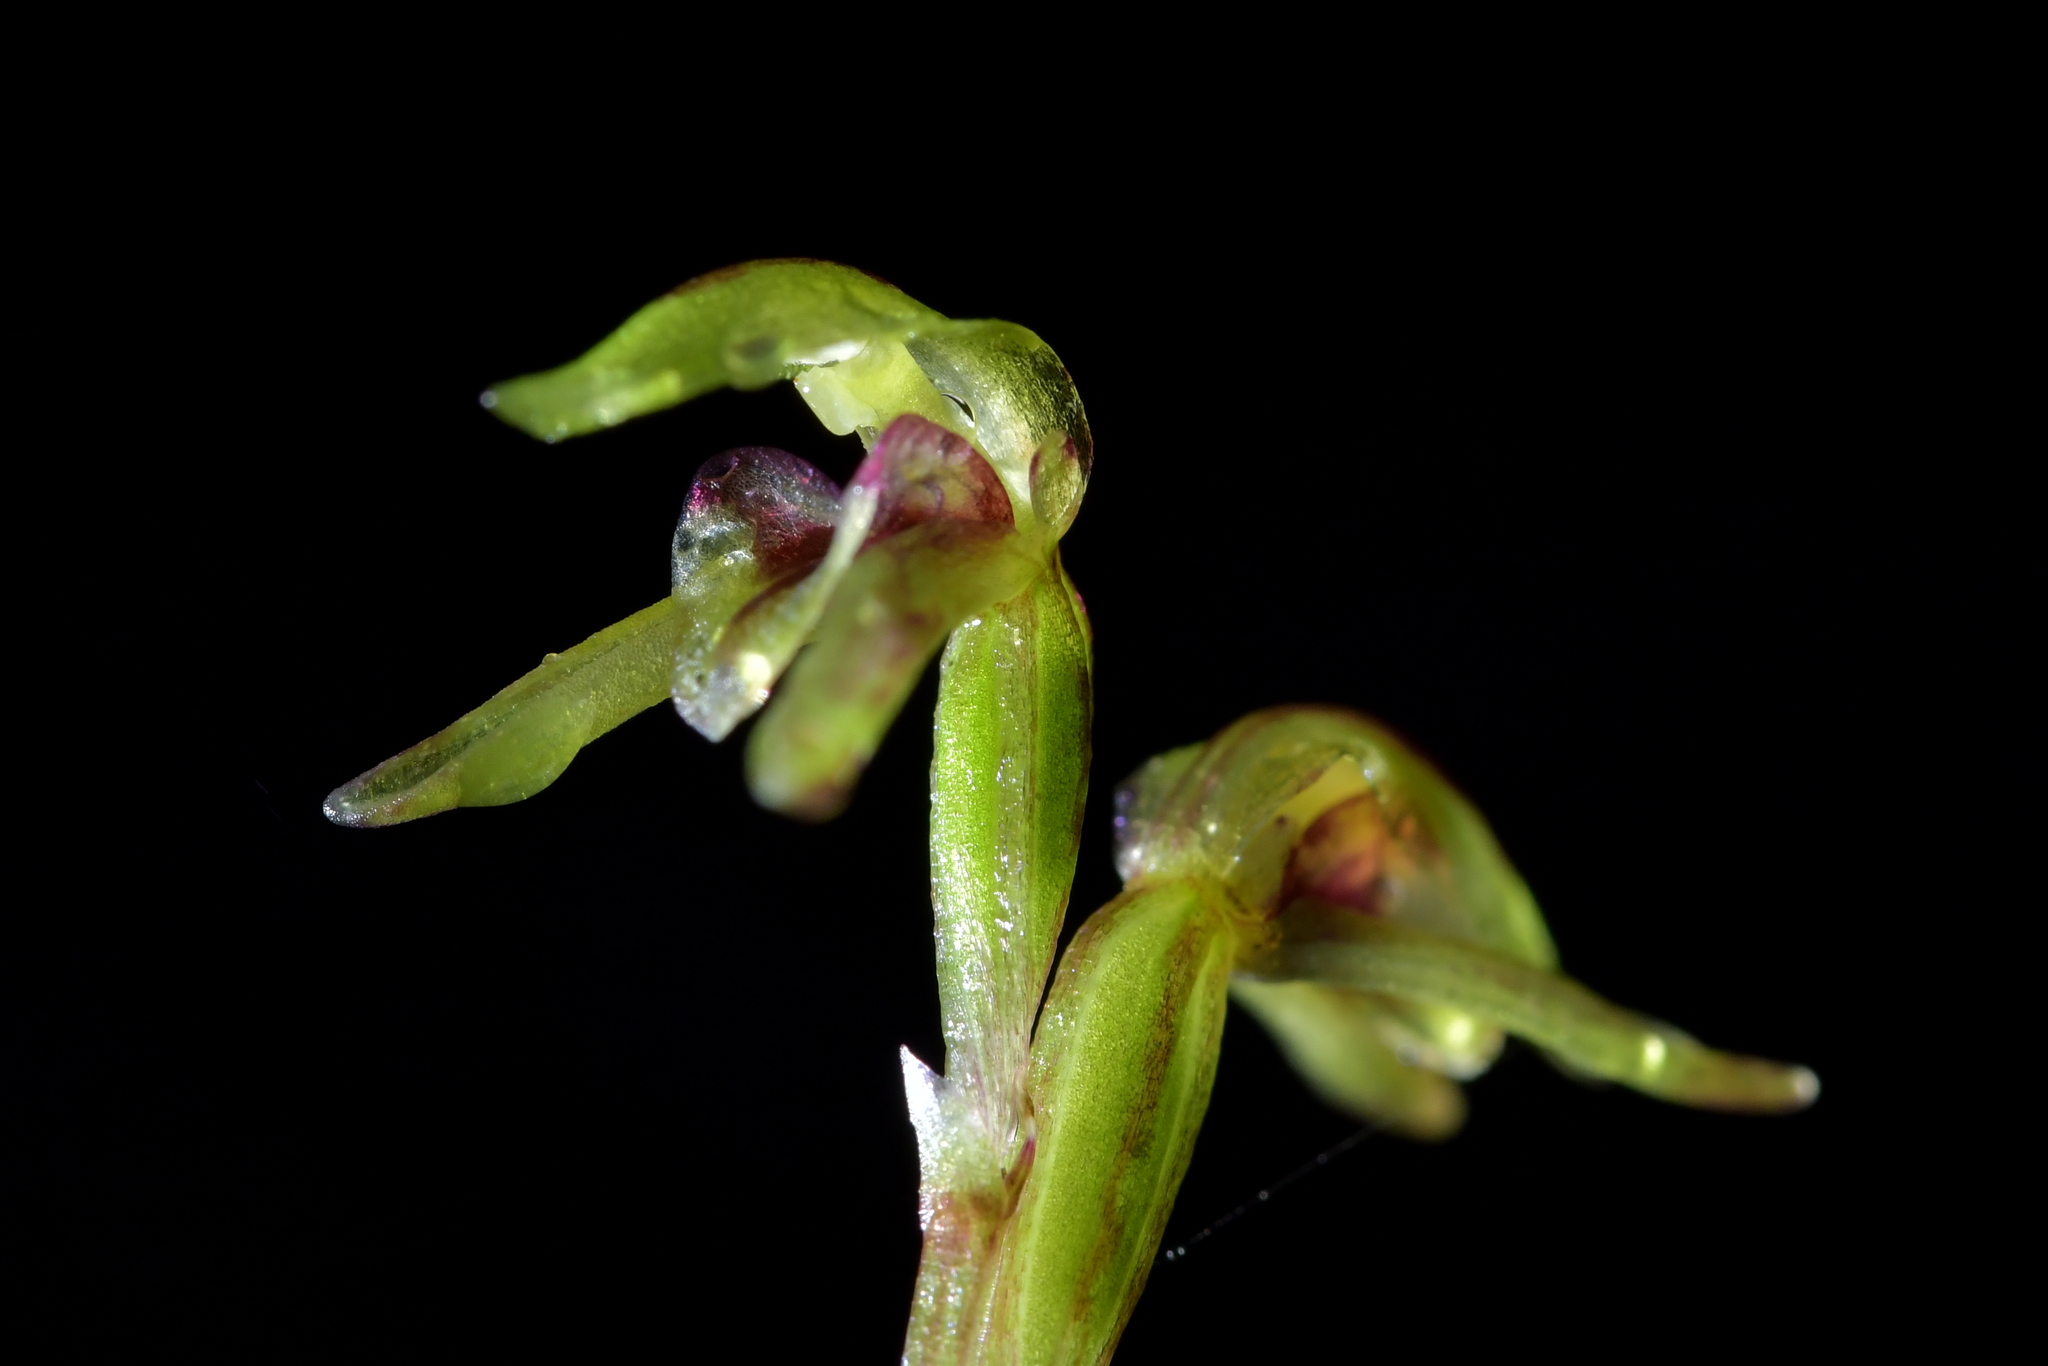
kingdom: Plantae
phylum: Tracheophyta
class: Liliopsida
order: Asparagales
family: Orchidaceae
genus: Townsonia
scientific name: Townsonia deflexa
